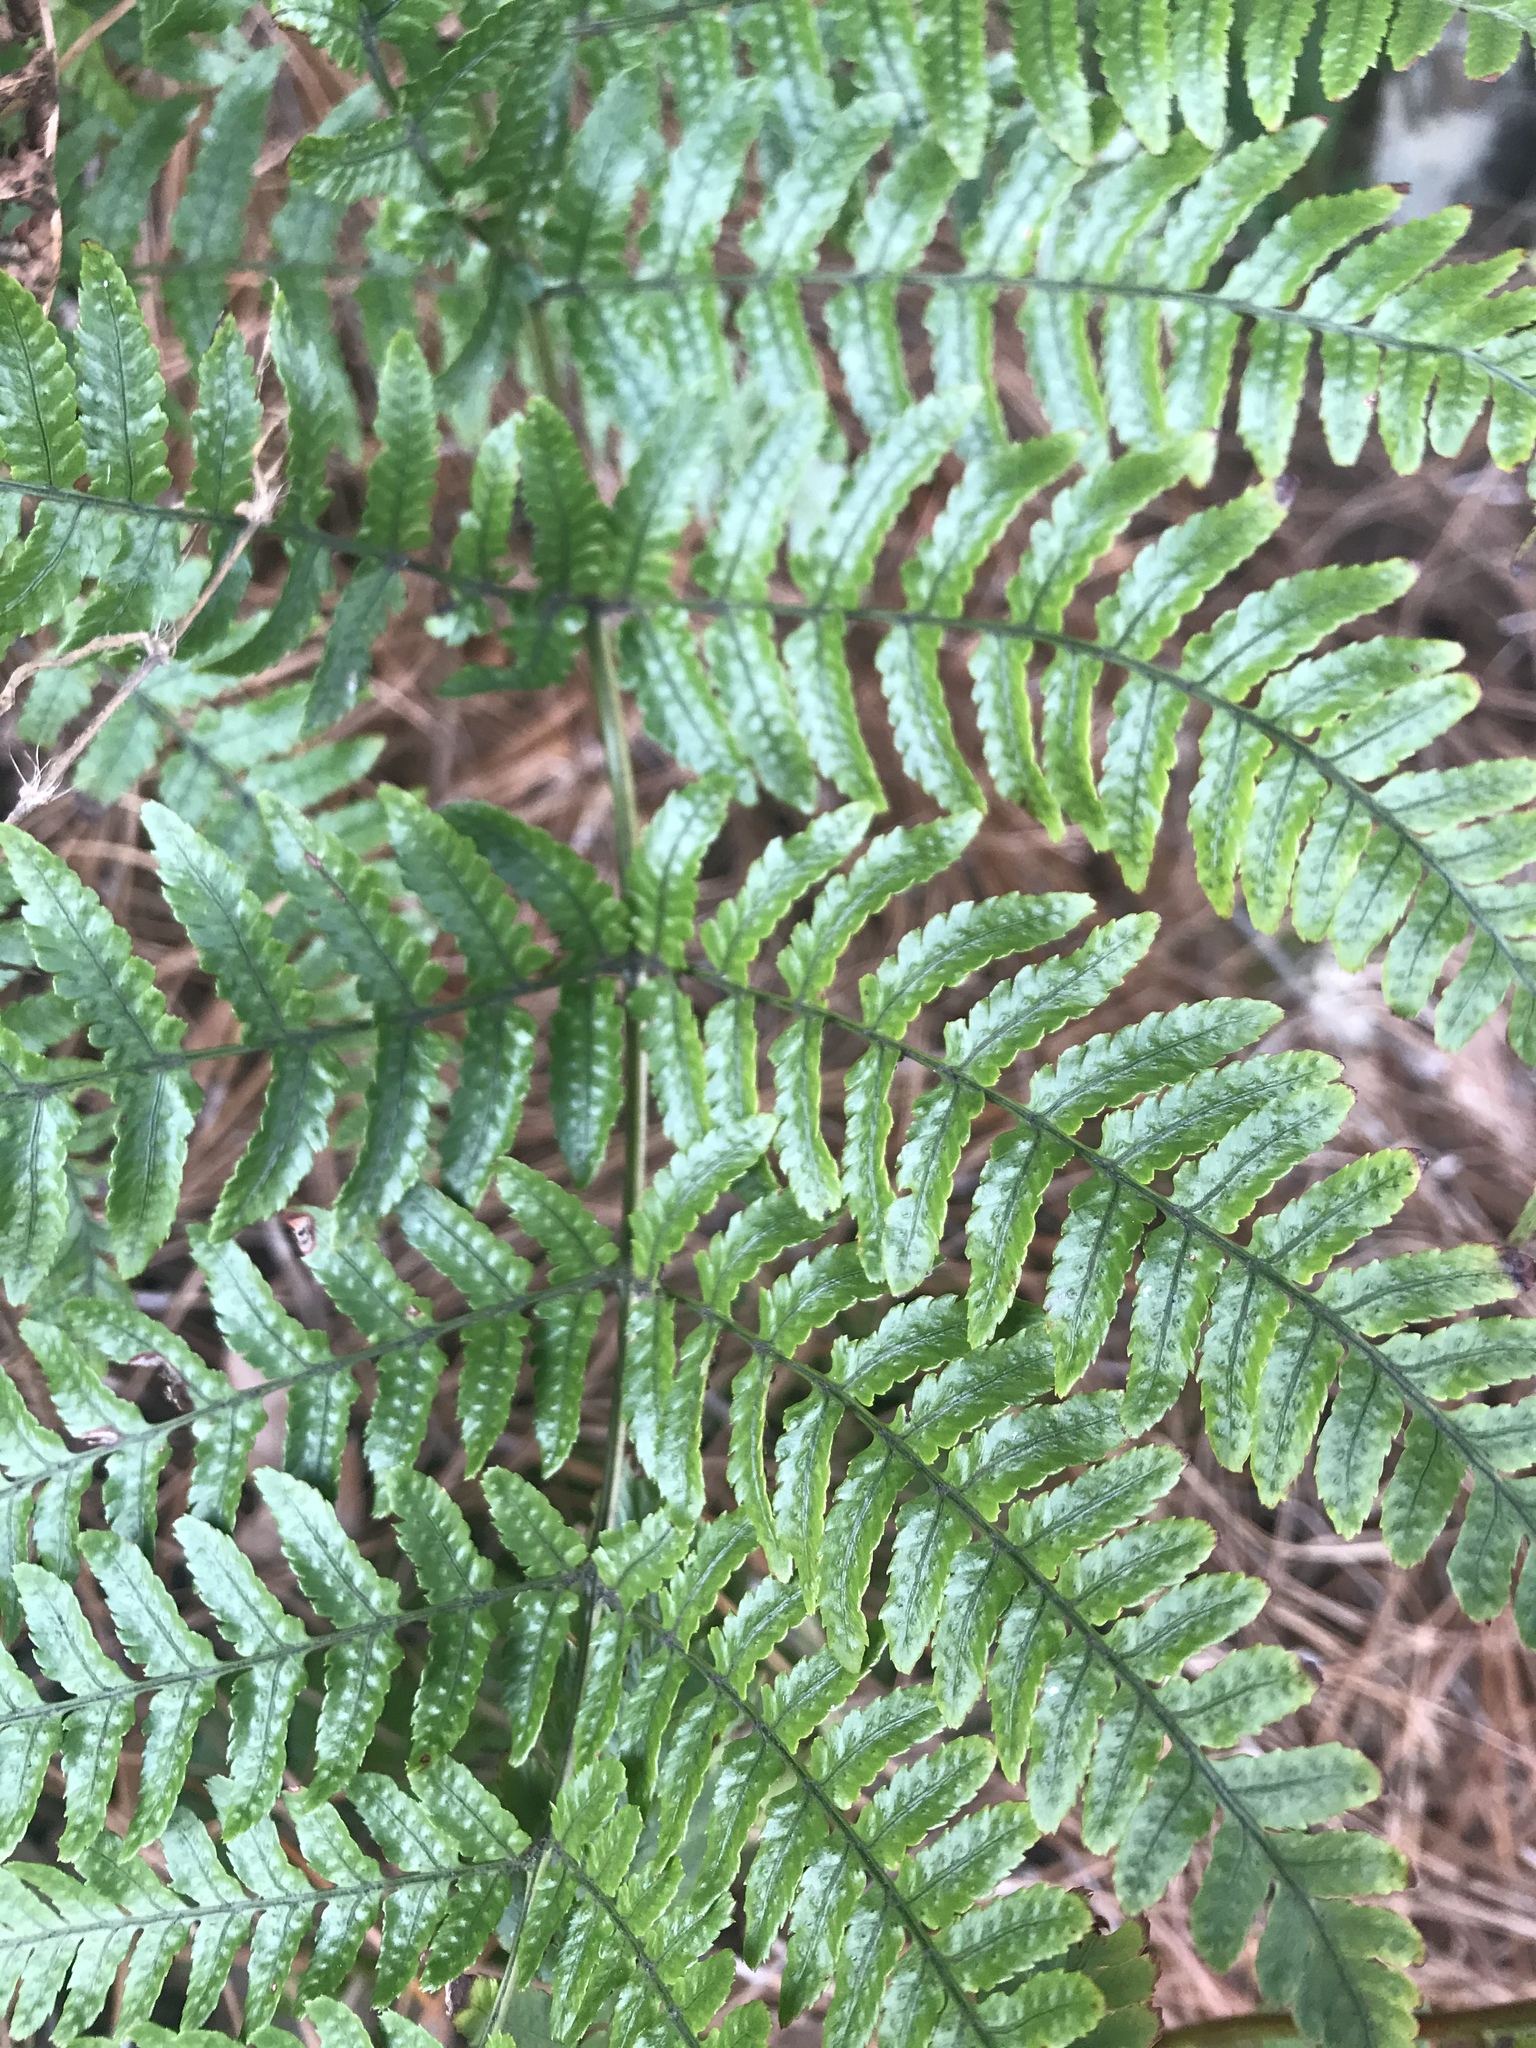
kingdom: Plantae
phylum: Tracheophyta
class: Polypodiopsida
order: Polypodiales
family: Dryopteridaceae
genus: Dryopteris
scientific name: Dryopteris erythrosora
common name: Autumn fern
